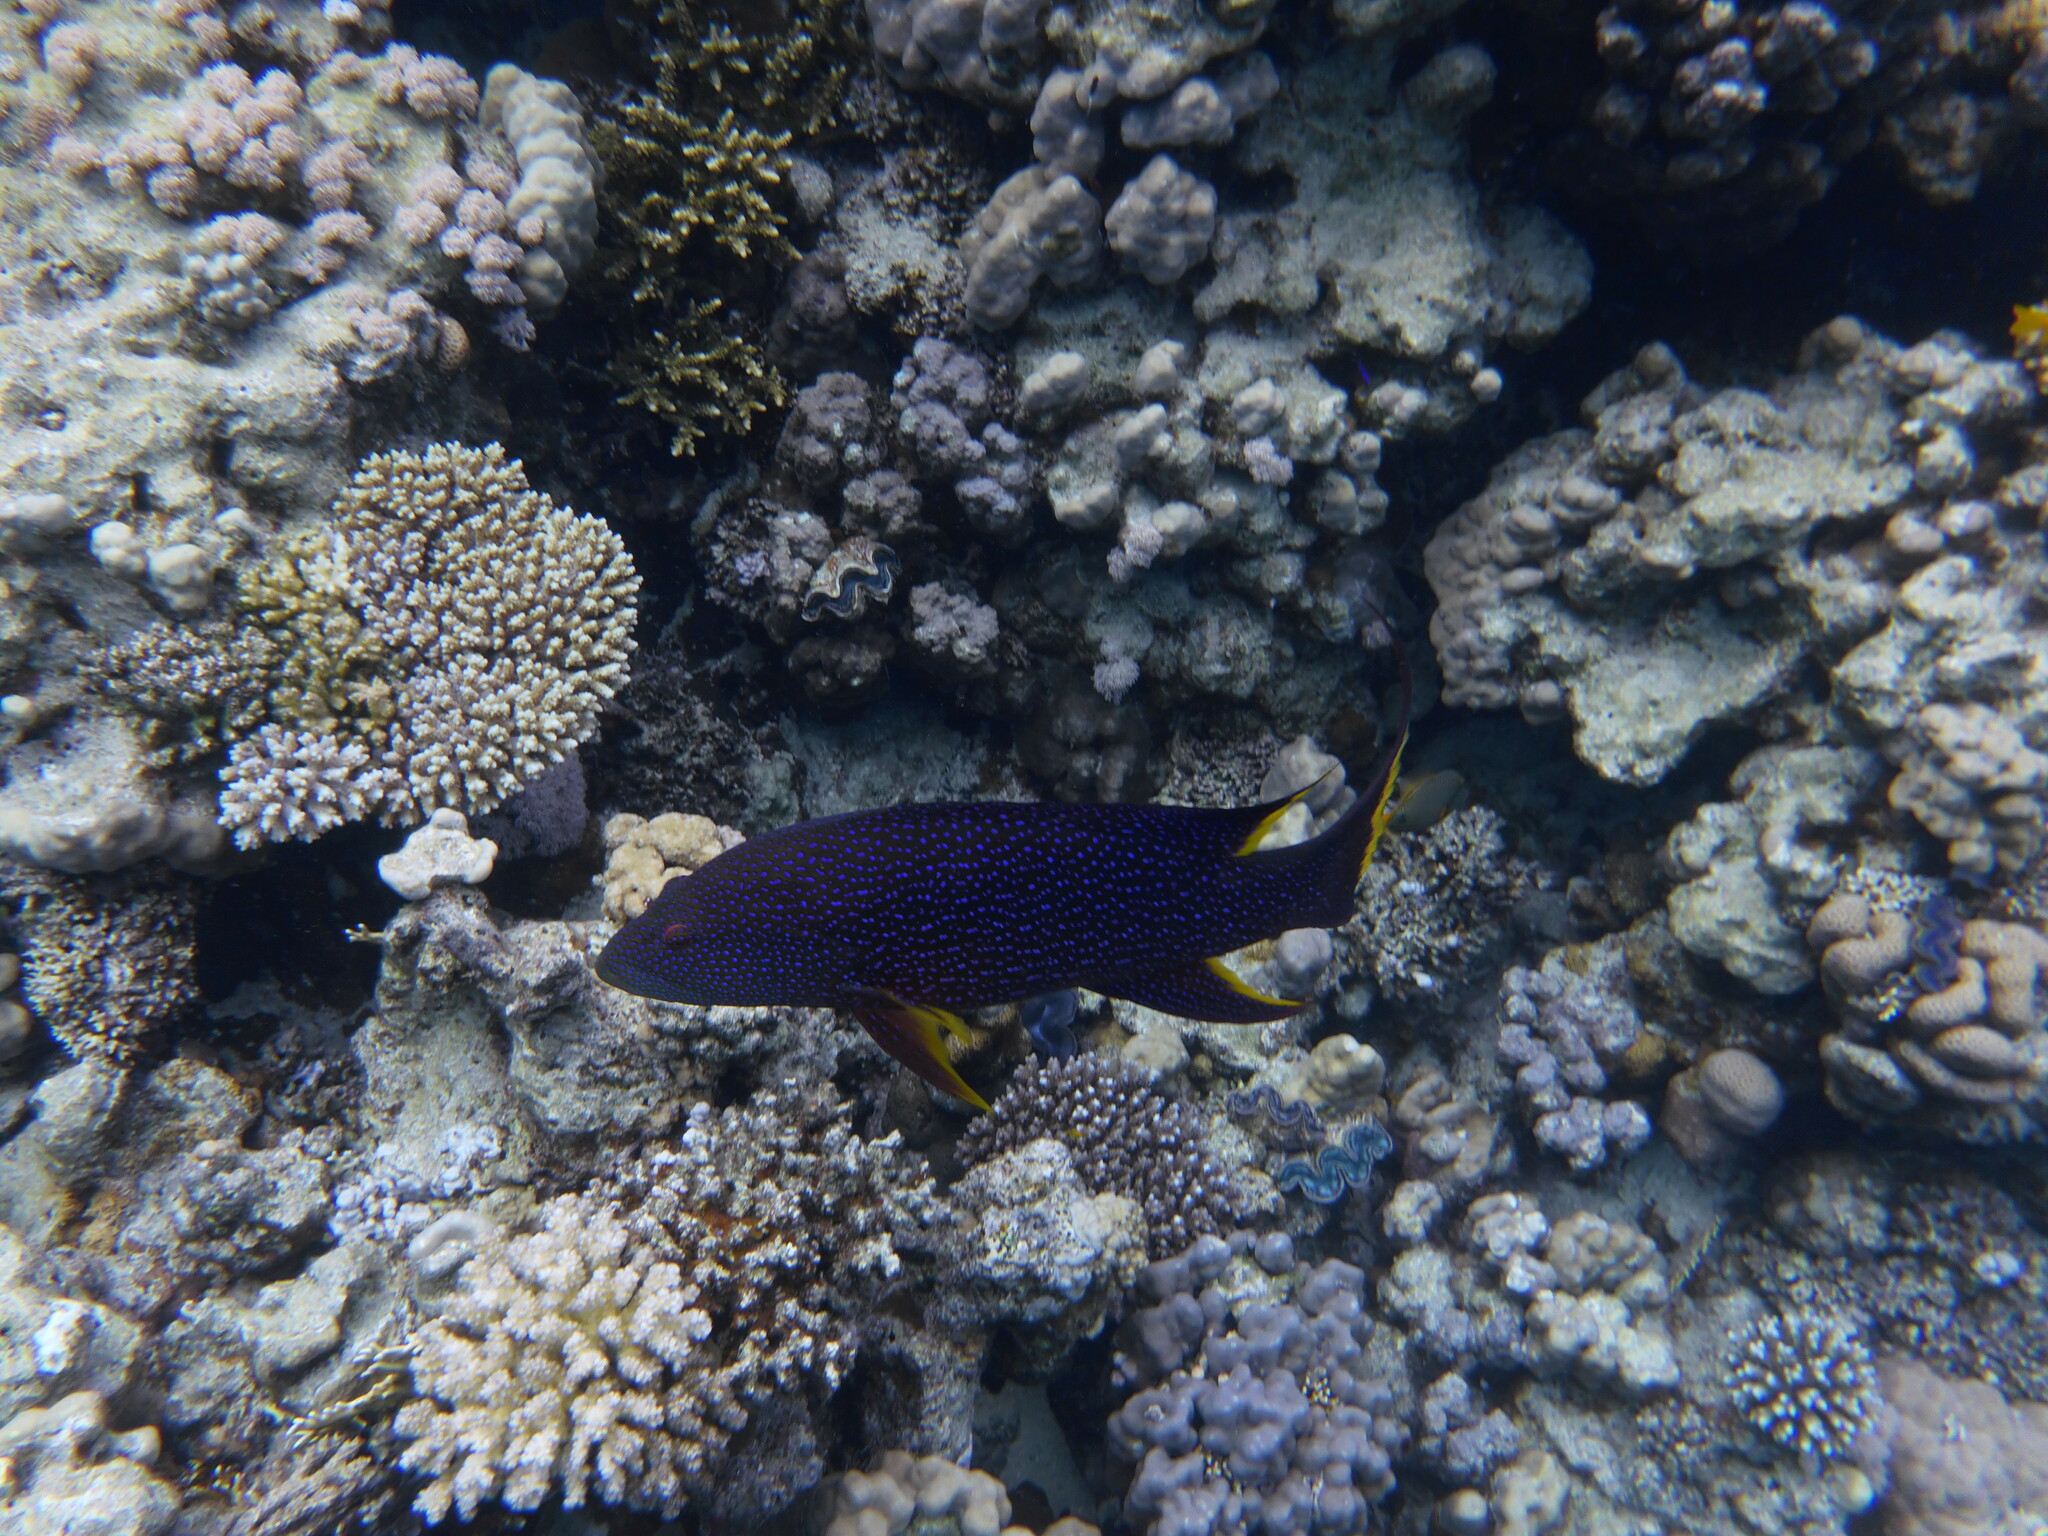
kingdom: Animalia
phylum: Chordata
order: Perciformes
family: Serranidae
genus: Variola
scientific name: Variola louti
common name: Yellow-edged lyretail
